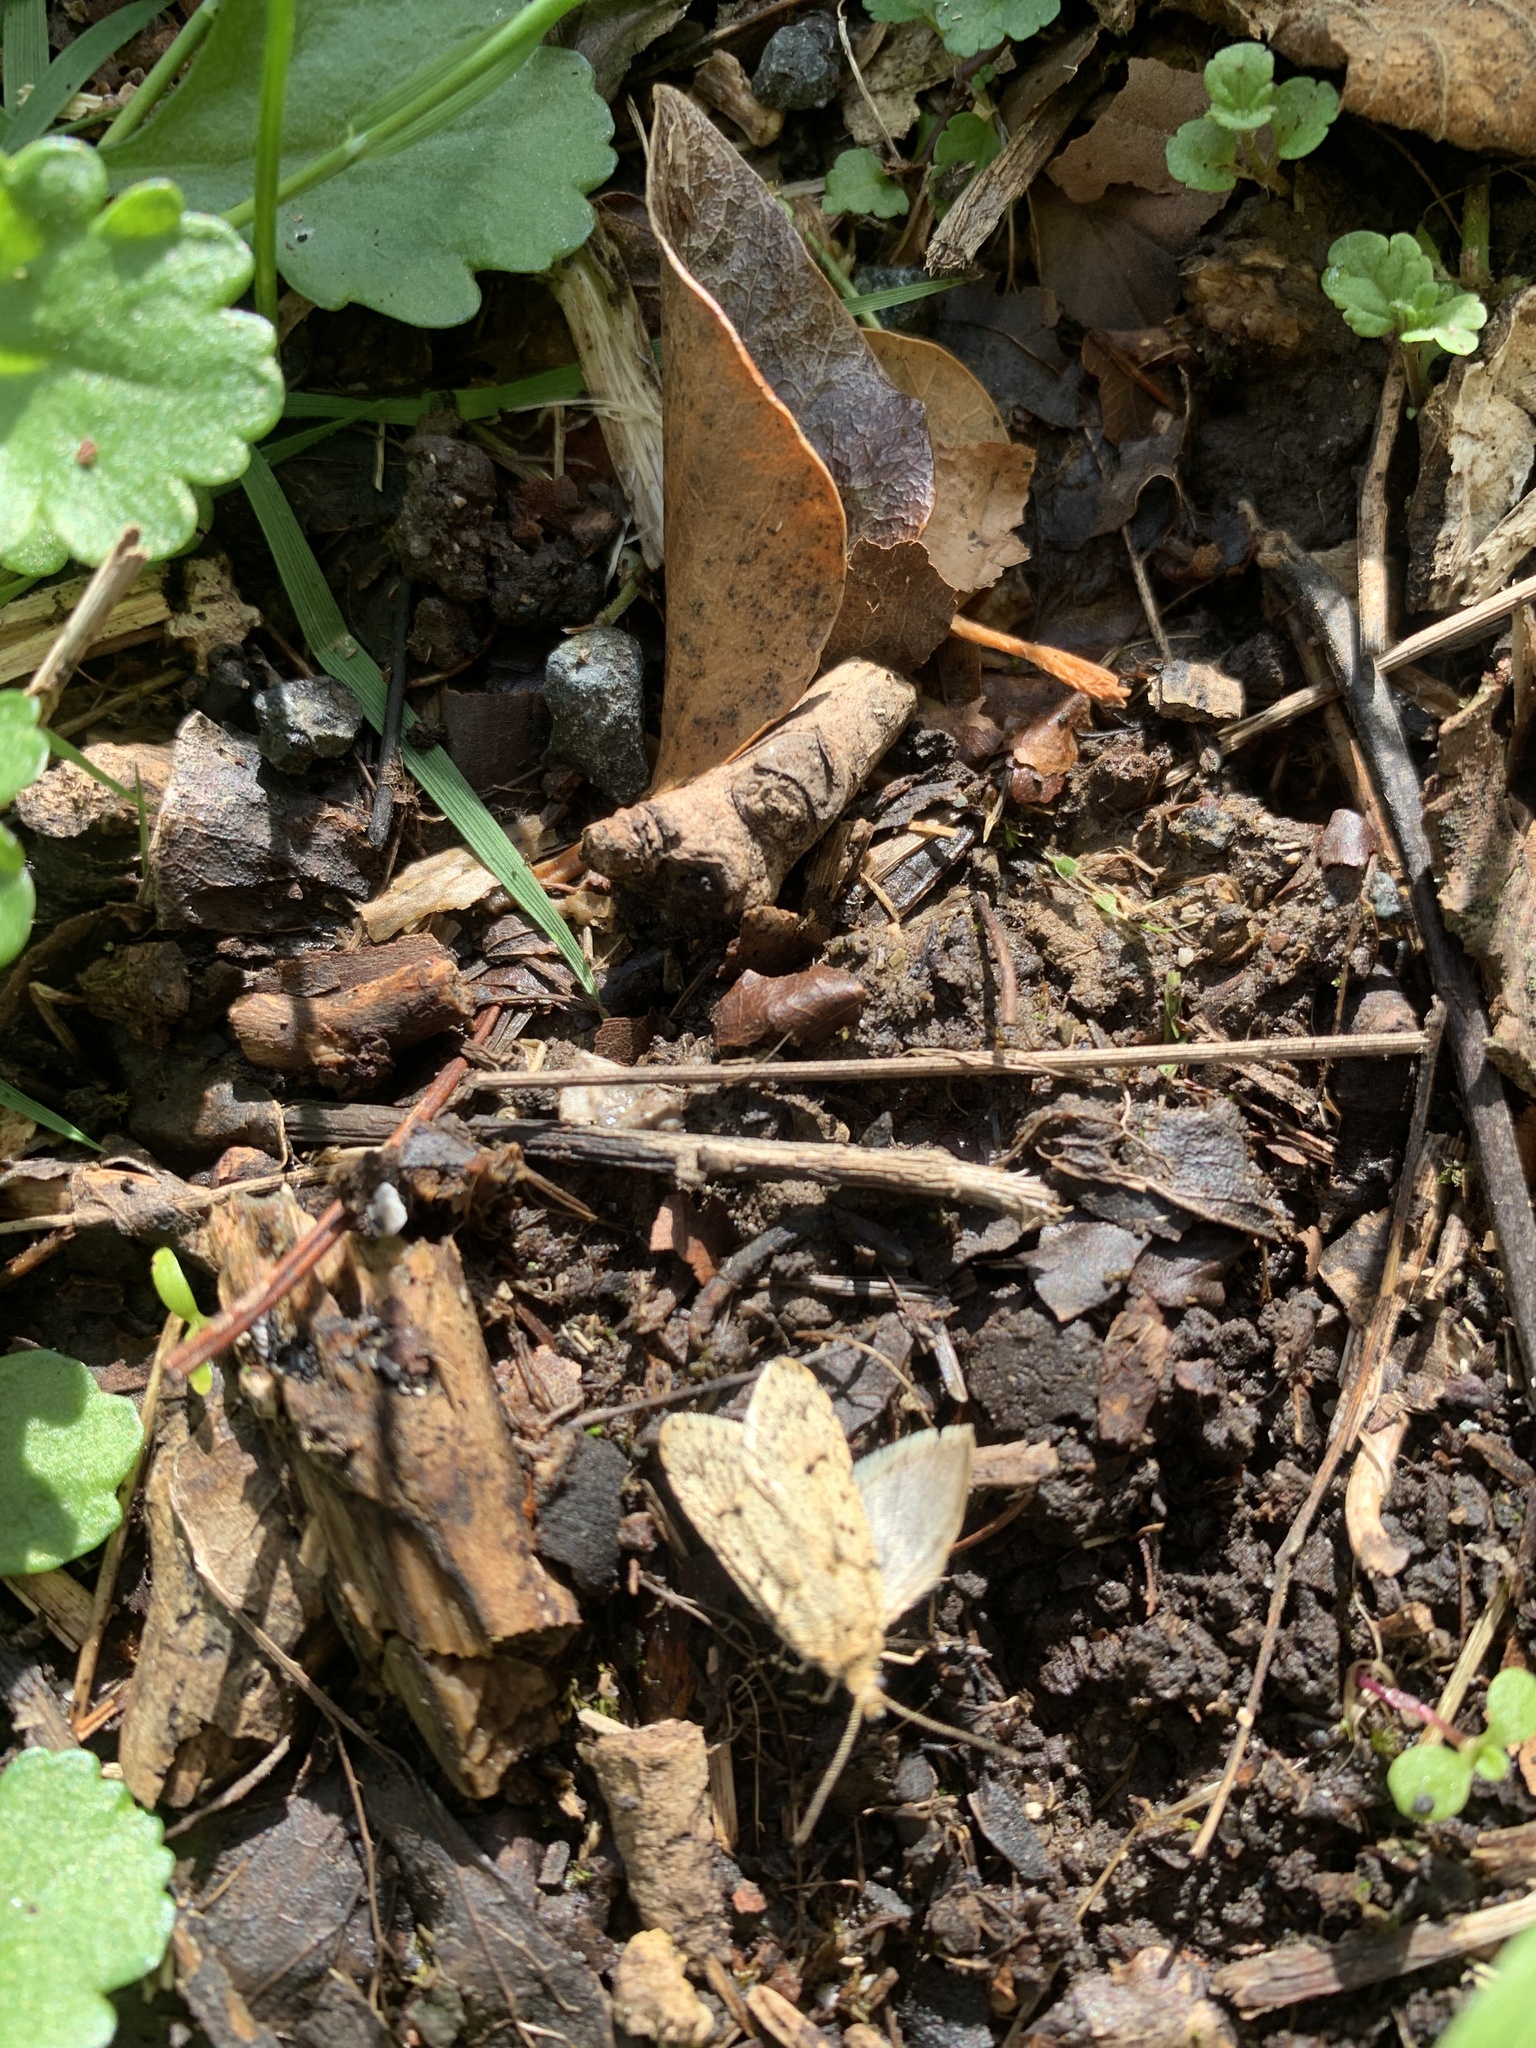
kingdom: Animalia
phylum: Arthropoda
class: Insecta
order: Lepidoptera
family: Lypusidae
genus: Diurnea
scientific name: Diurnea fagella
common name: March tubic
